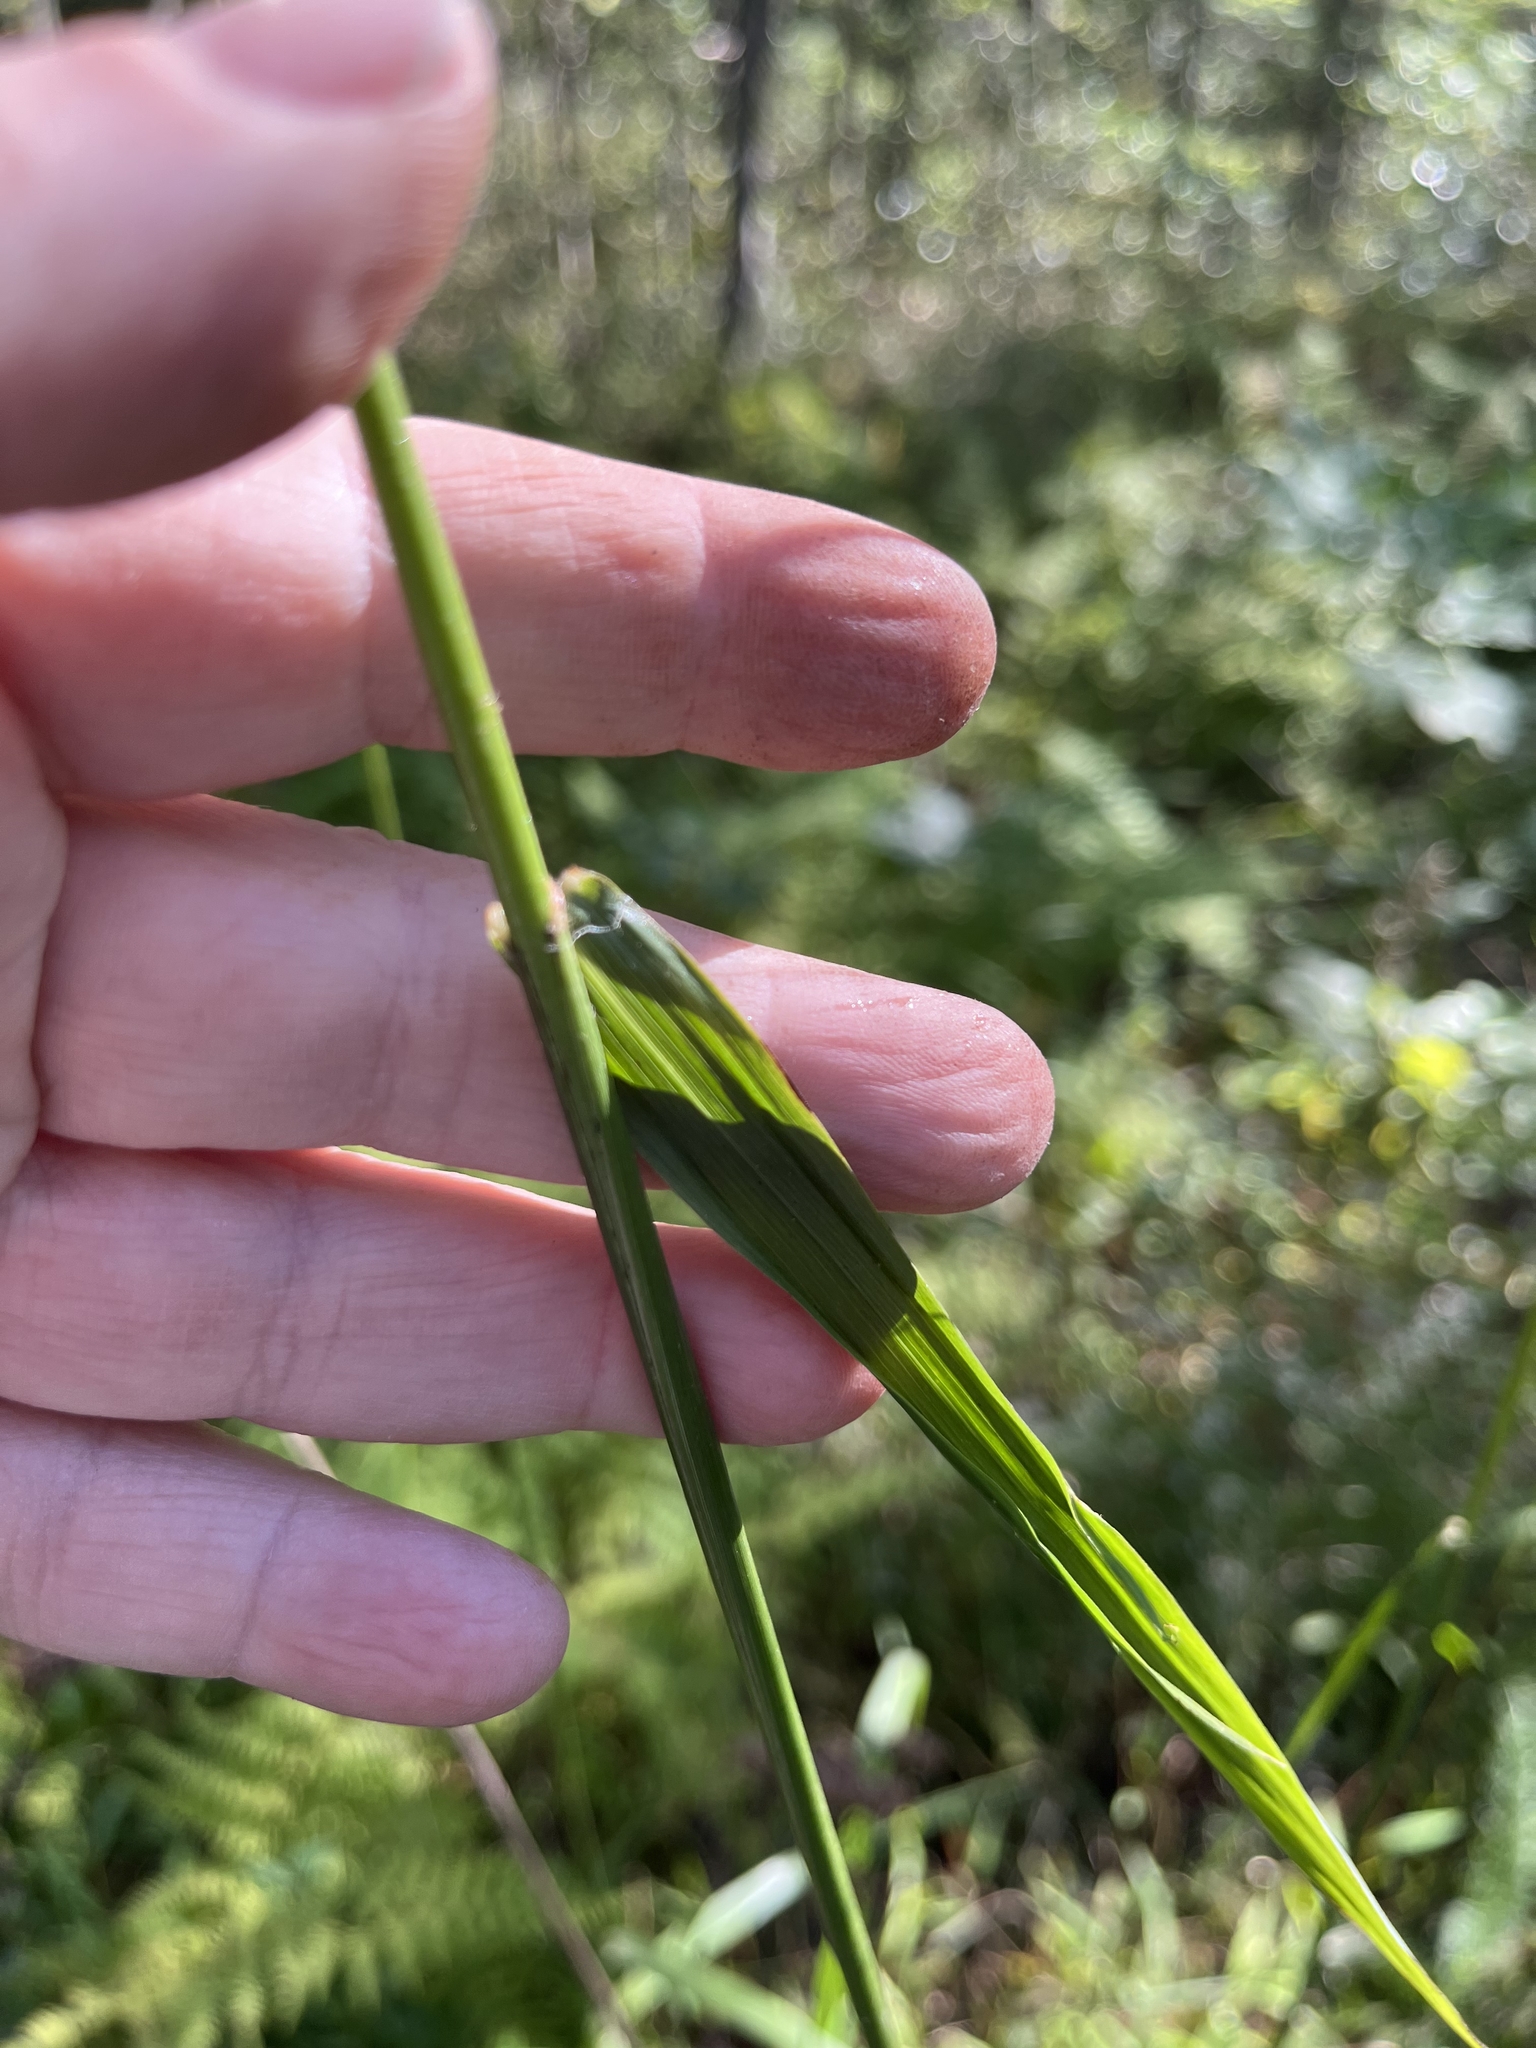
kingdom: Plantae
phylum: Tracheophyta
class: Liliopsida
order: Poales
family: Poaceae
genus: Tridens
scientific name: Tridens flavus
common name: Purpletop
